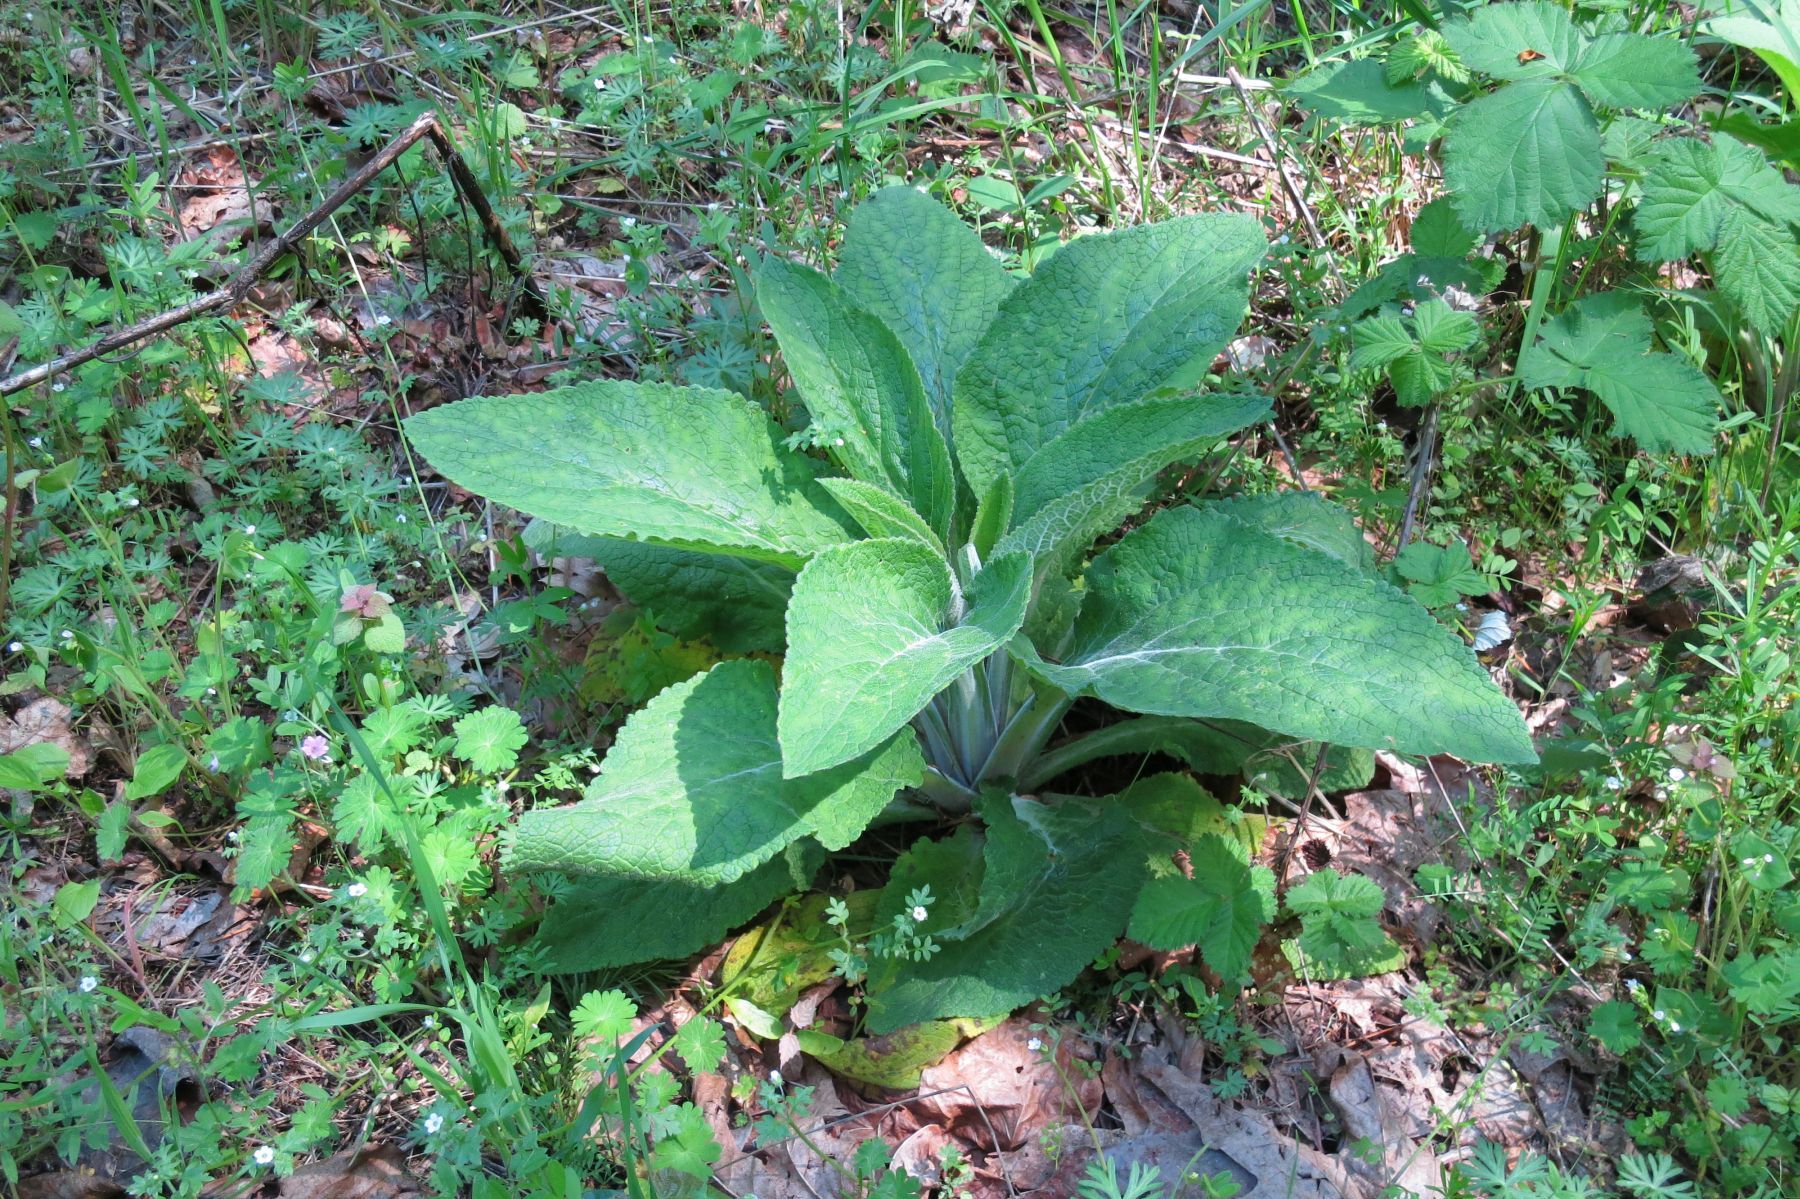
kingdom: Plantae
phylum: Tracheophyta
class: Magnoliopsida
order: Lamiales
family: Plantaginaceae
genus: Digitalis
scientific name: Digitalis purpurea
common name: Foxglove
